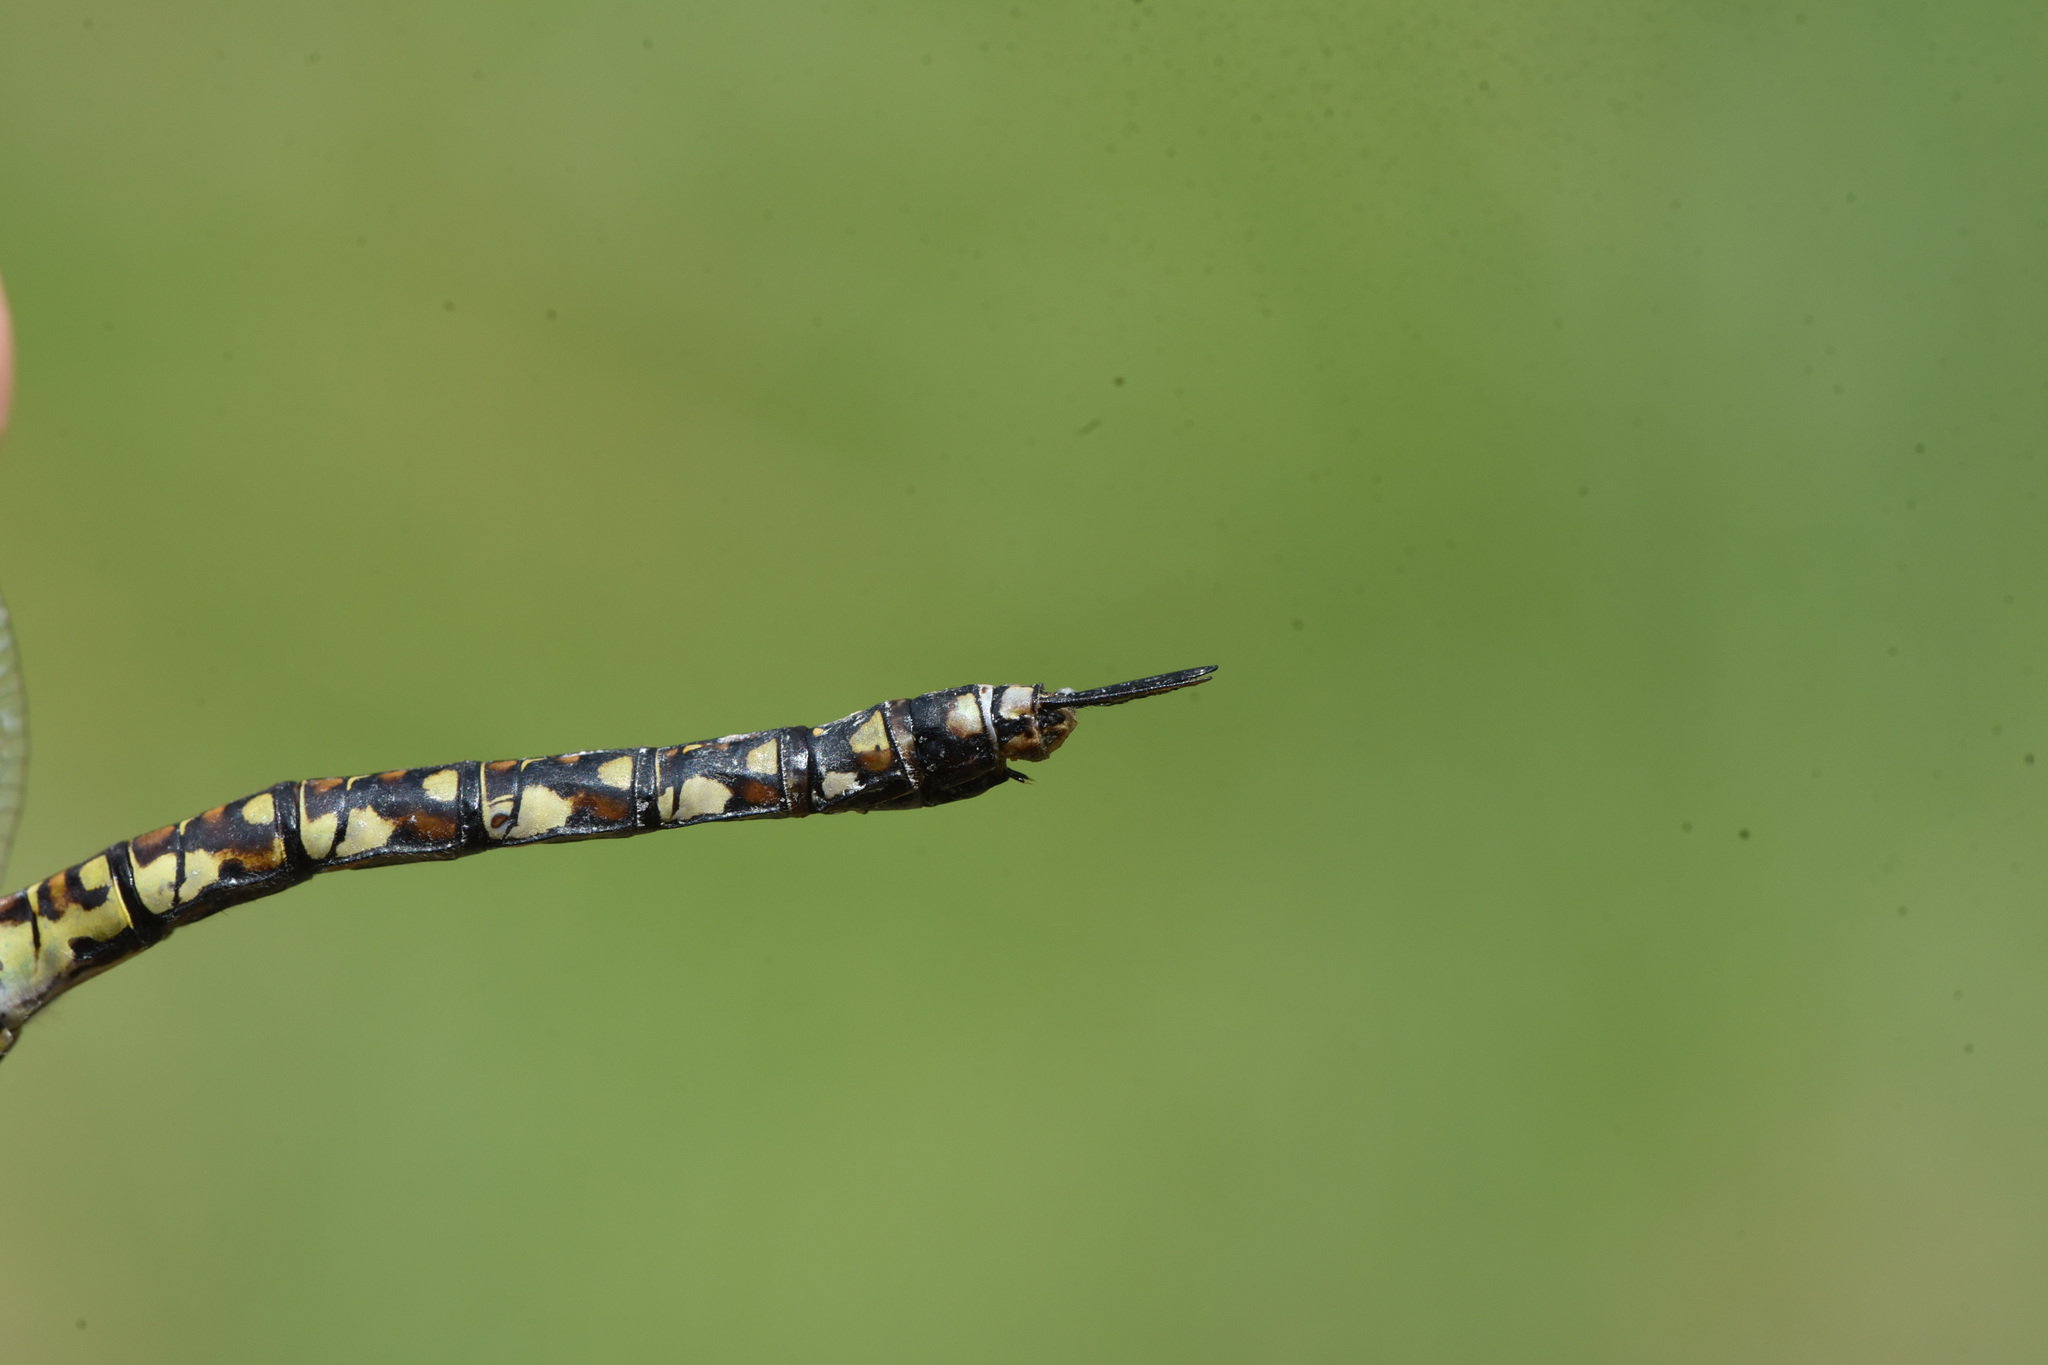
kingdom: Animalia
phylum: Arthropoda
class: Insecta
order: Odonata
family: Aeshnidae
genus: Rhionaeschna
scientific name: Rhionaeschna californica
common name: California darner
